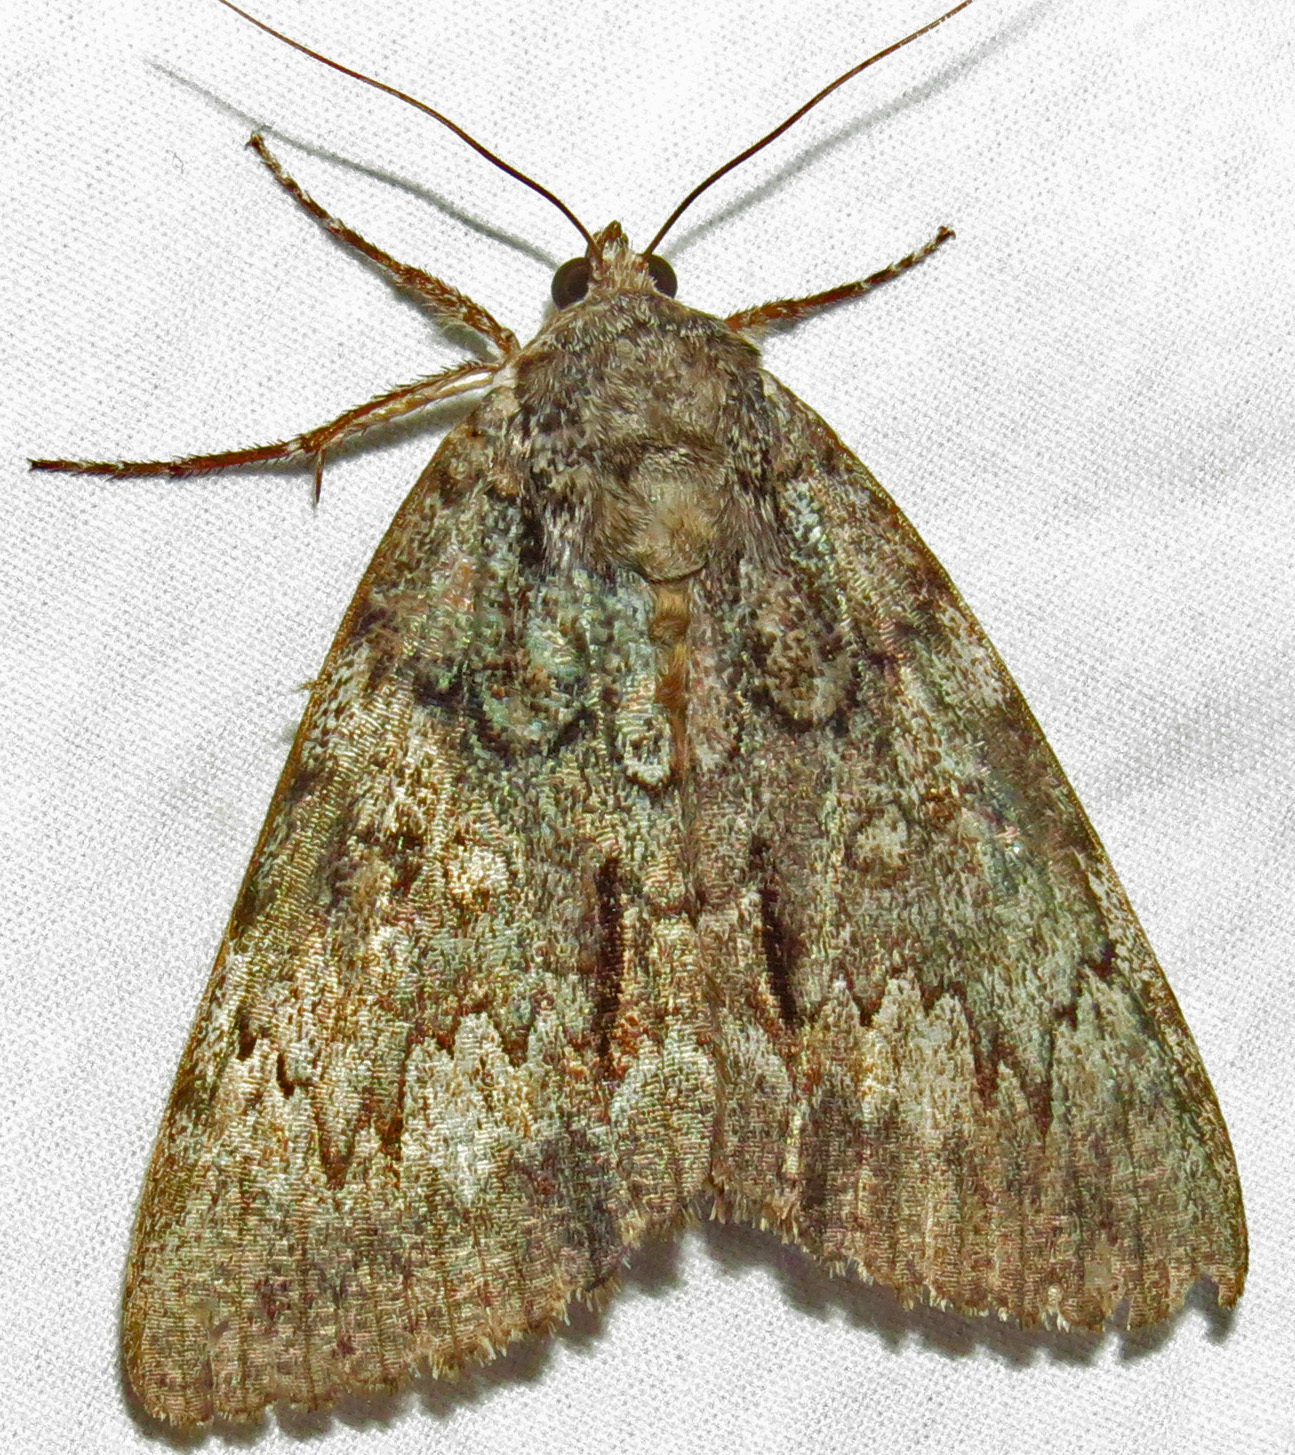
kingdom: Animalia
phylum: Arthropoda
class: Insecta
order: Lepidoptera
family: Erebidae
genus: Catocala
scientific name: Catocala palaeogama
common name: Oldwife underwing
